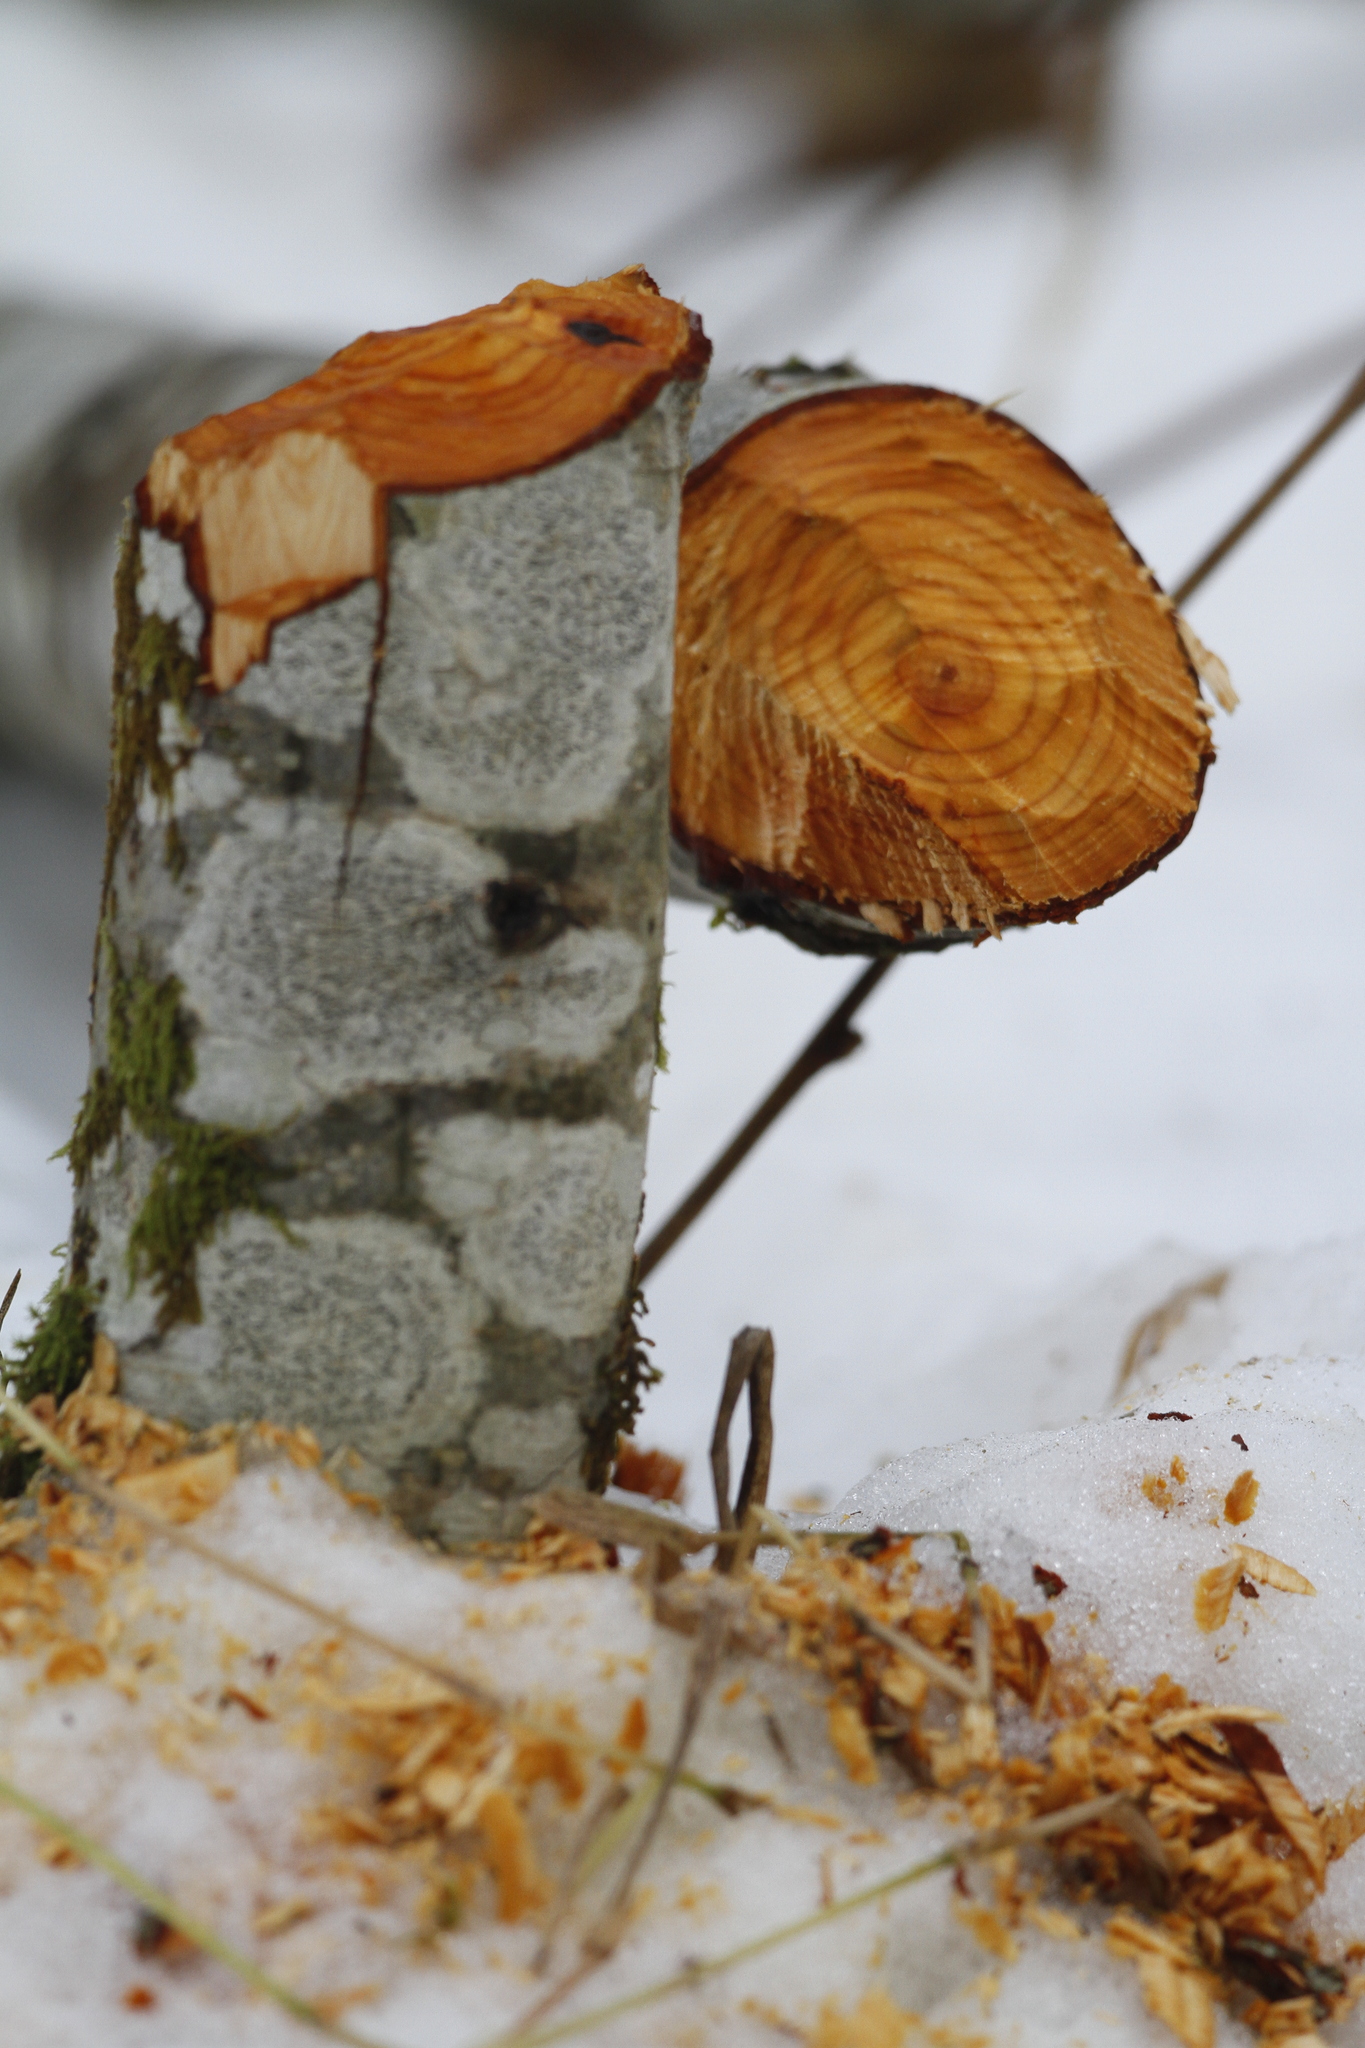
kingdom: Animalia
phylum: Chordata
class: Mammalia
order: Rodentia
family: Castoridae
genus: Castor
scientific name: Castor canadensis
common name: American beaver
